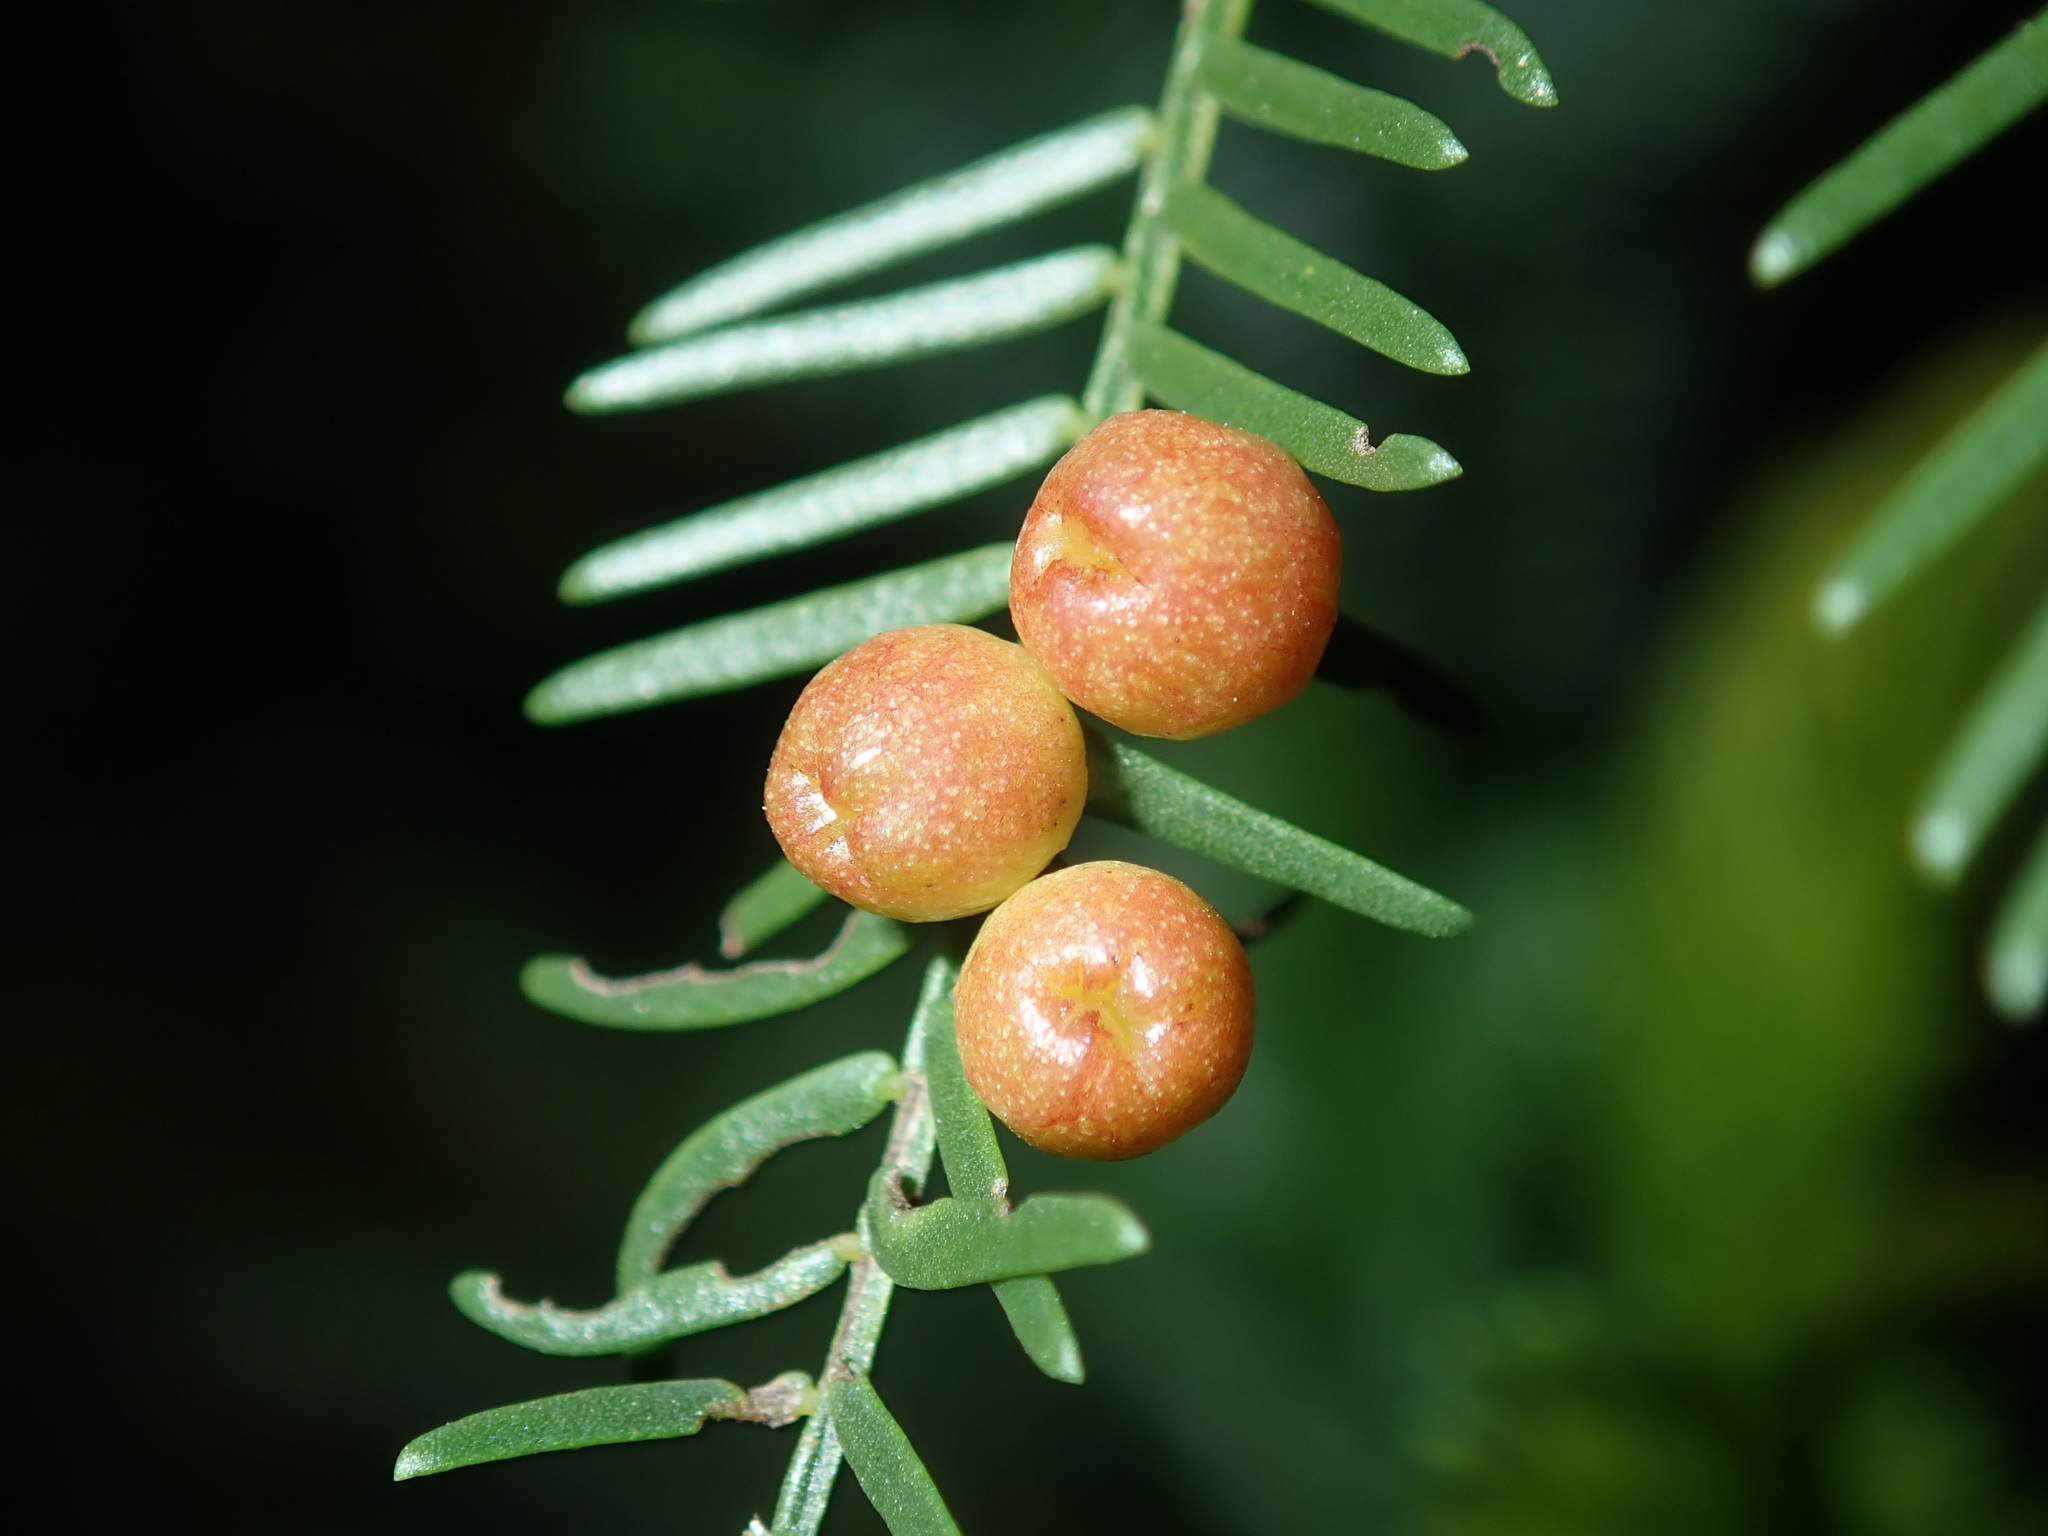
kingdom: Animalia
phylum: Arthropoda
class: Insecta
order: Diptera
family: Cecidomyiidae
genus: Austroacacidiplosis
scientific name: Austroacacidiplosis botrycephalae
